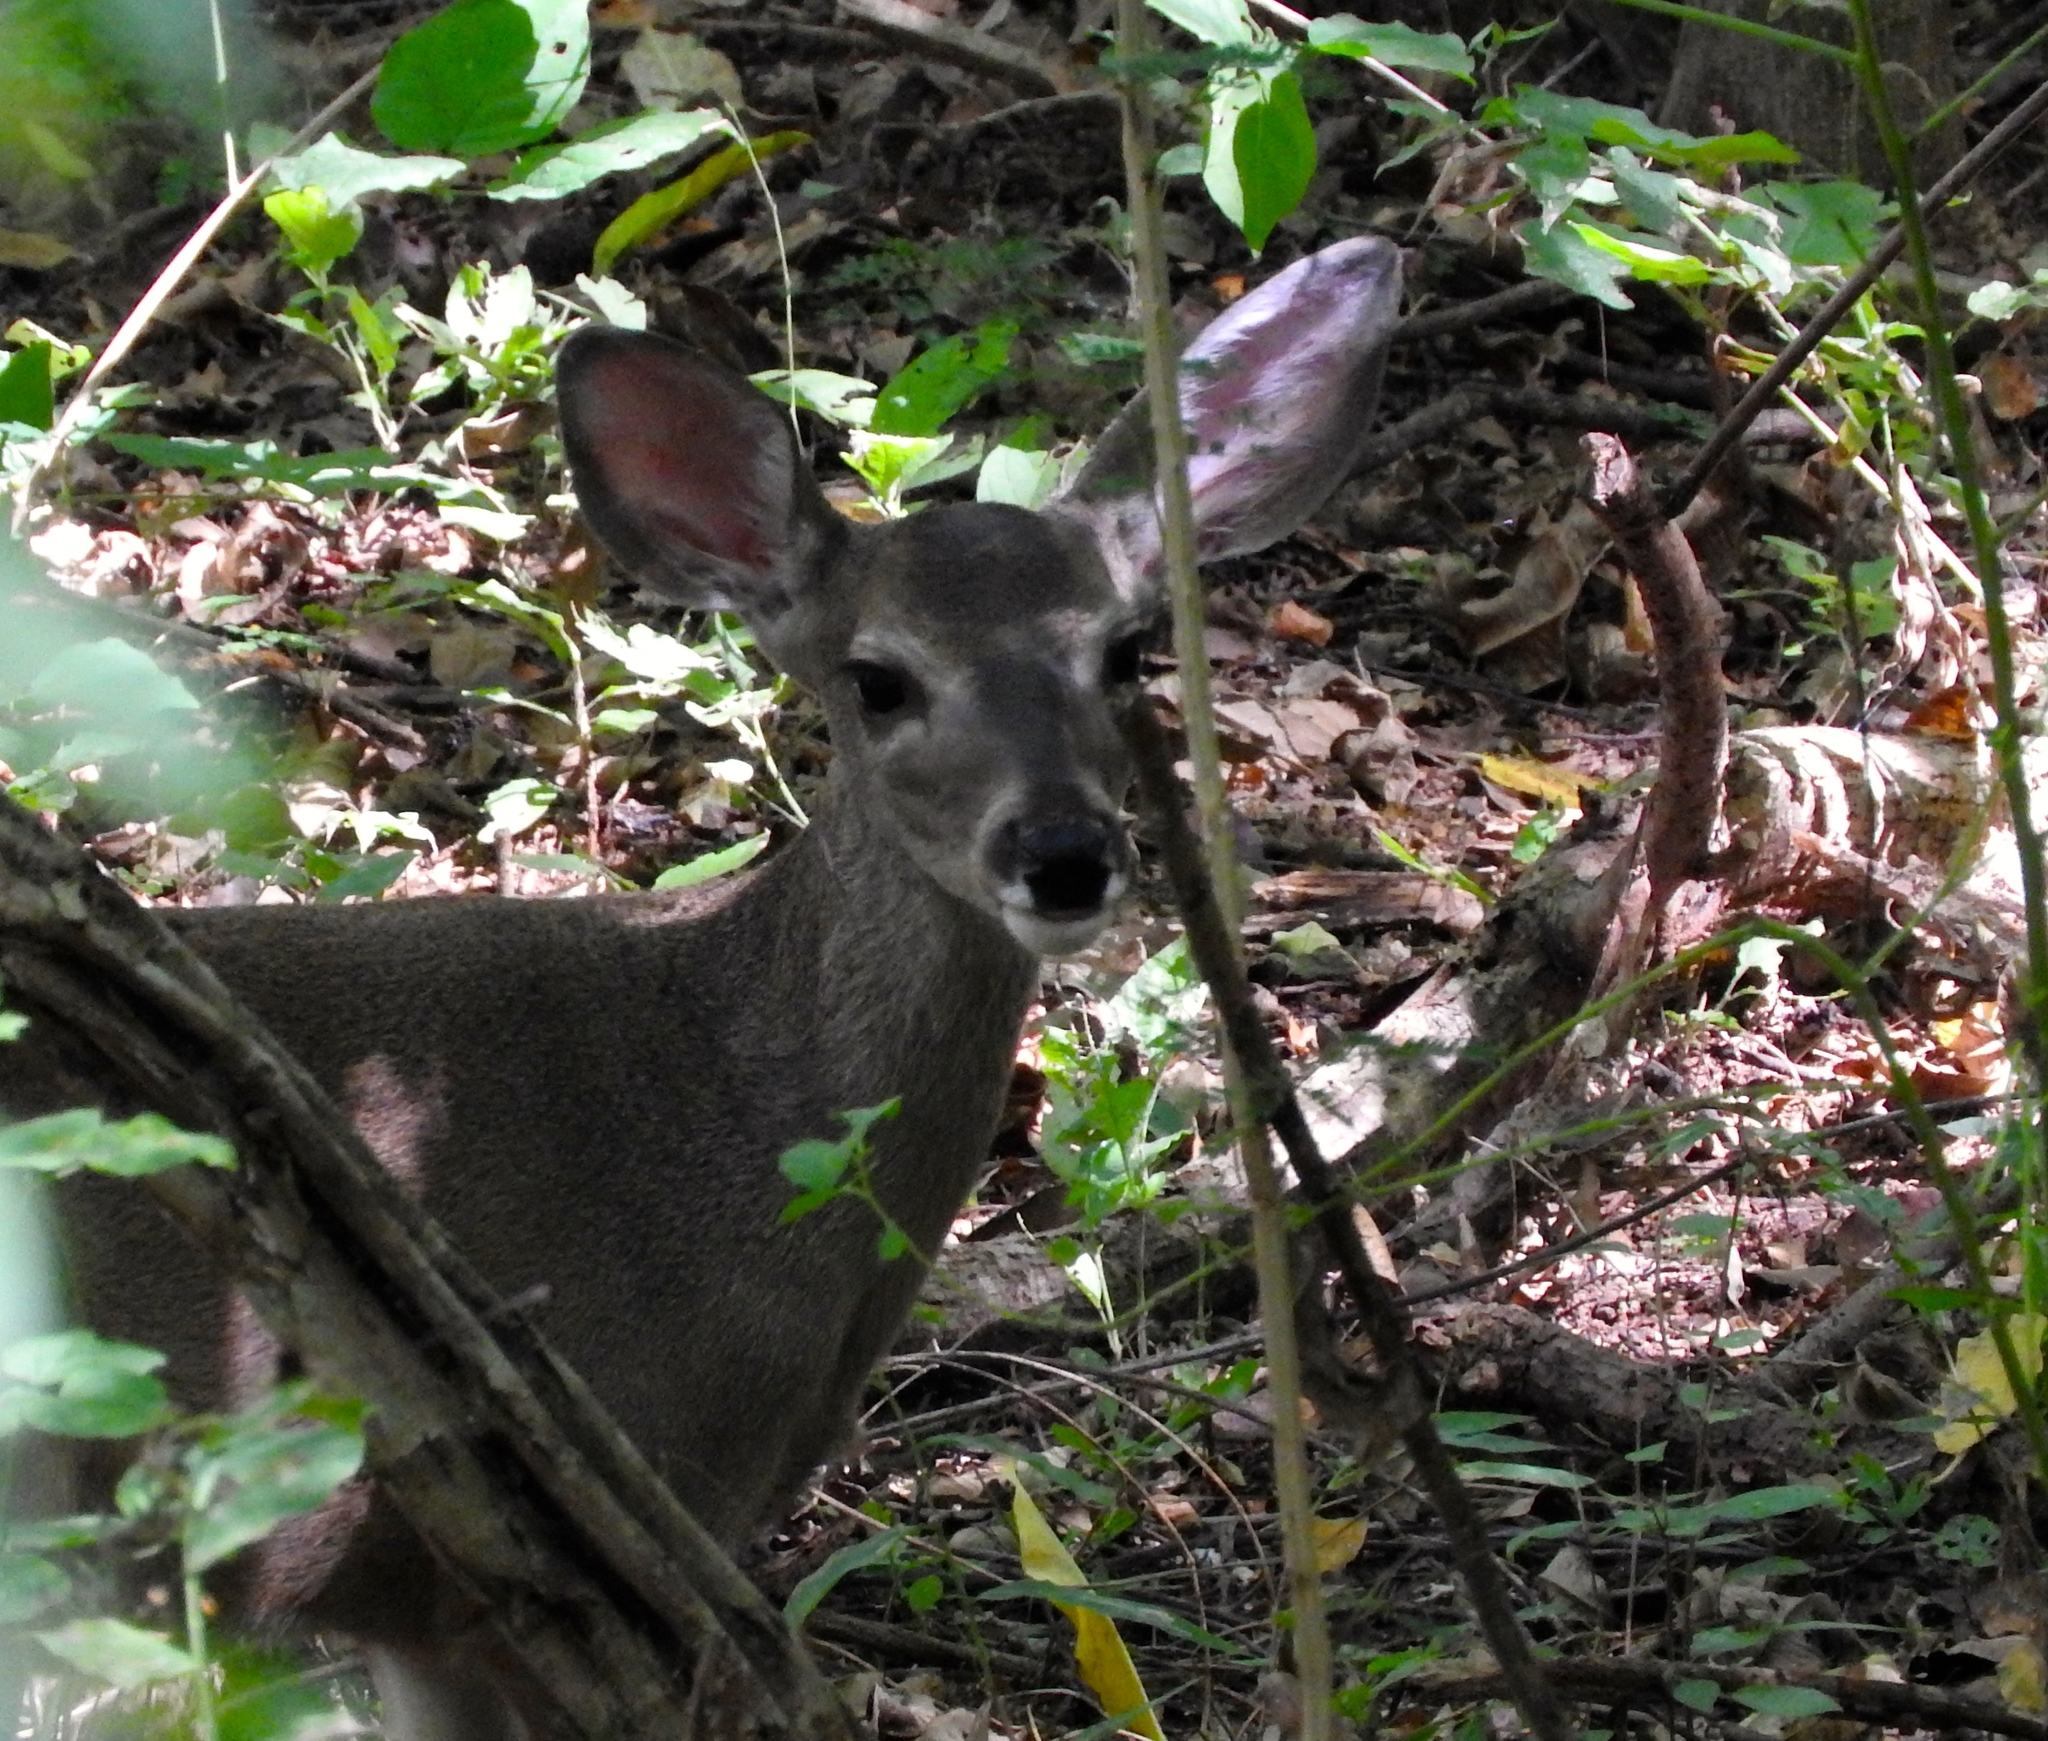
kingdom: Animalia
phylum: Chordata
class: Mammalia
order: Artiodactyla
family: Cervidae
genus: Odocoileus
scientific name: Odocoileus virginianus
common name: White-tailed deer
